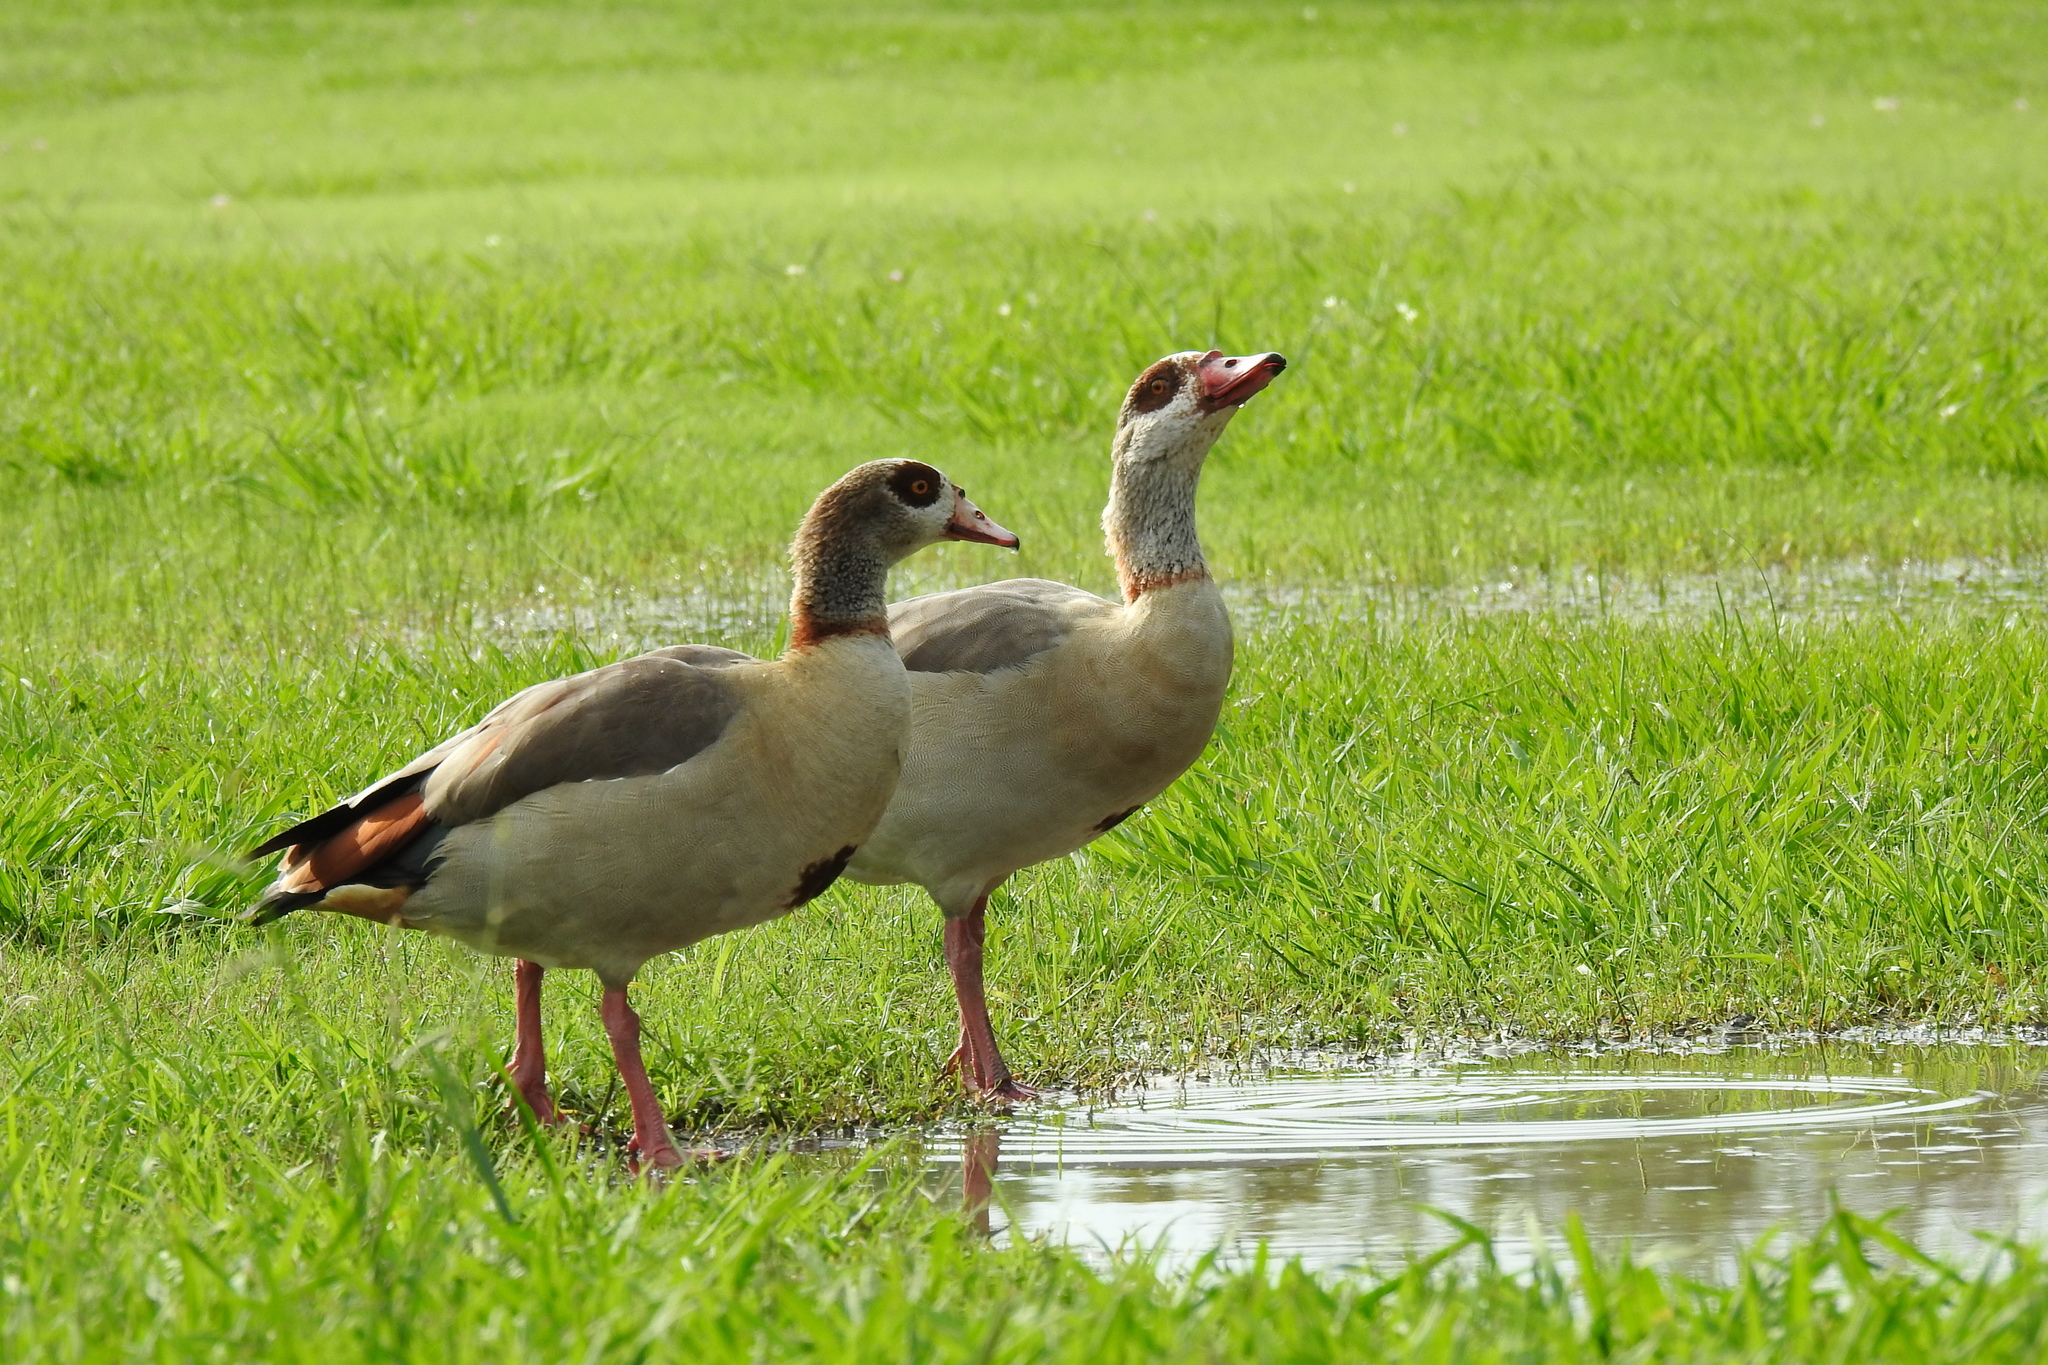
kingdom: Animalia
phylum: Chordata
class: Aves
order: Anseriformes
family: Anatidae
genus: Alopochen
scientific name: Alopochen aegyptiaca
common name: Egyptian goose
